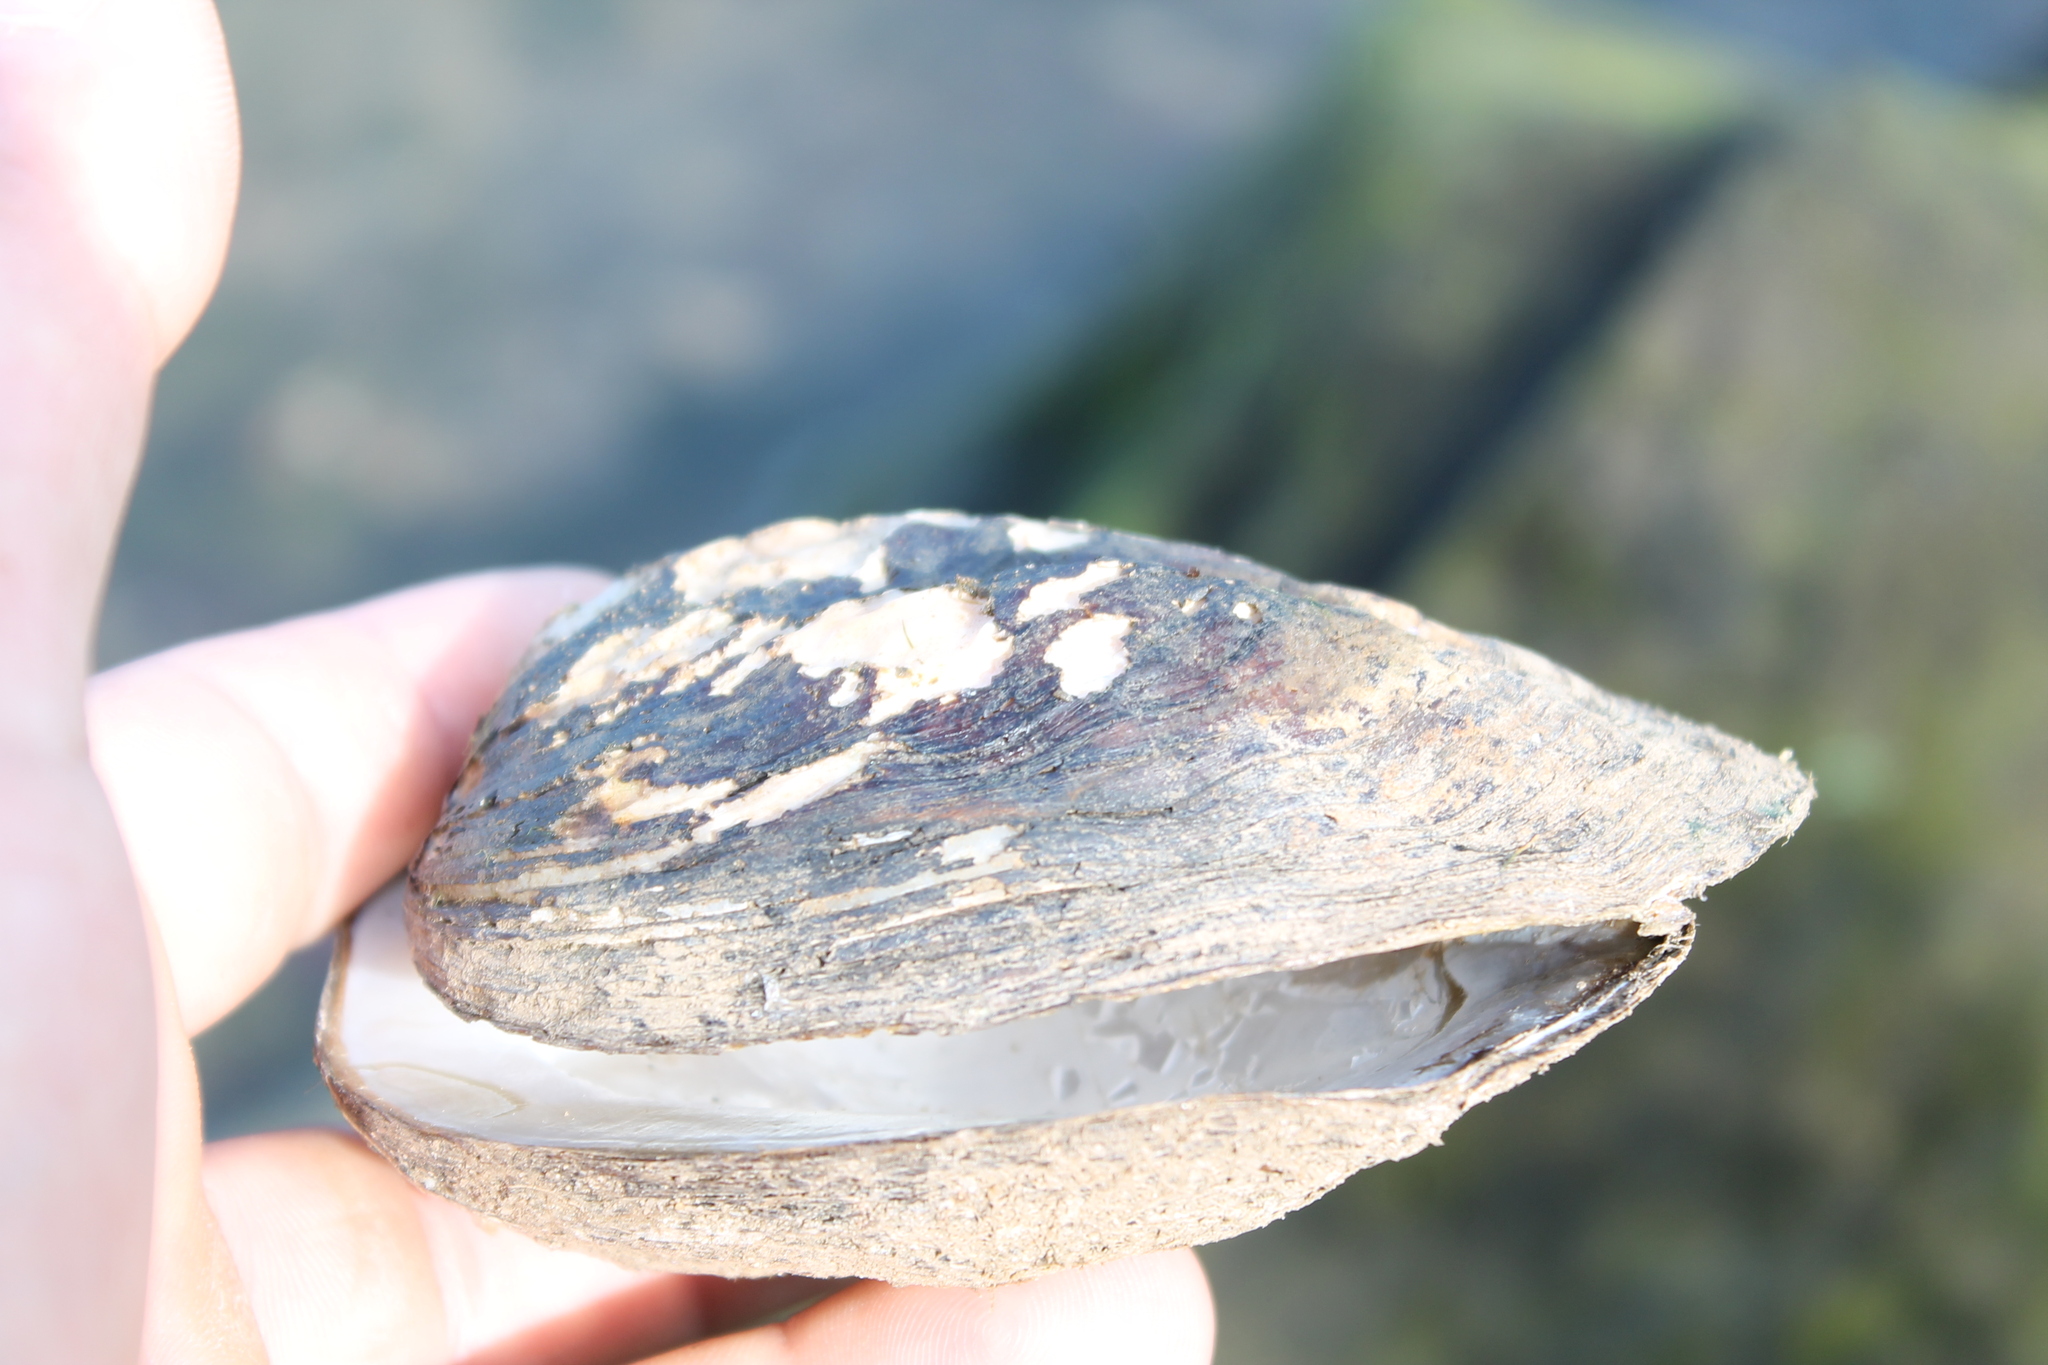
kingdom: Animalia
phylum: Mollusca
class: Bivalvia
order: Unionida
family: Unionidae
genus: Amblema
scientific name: Amblema plicata
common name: Threeridge
